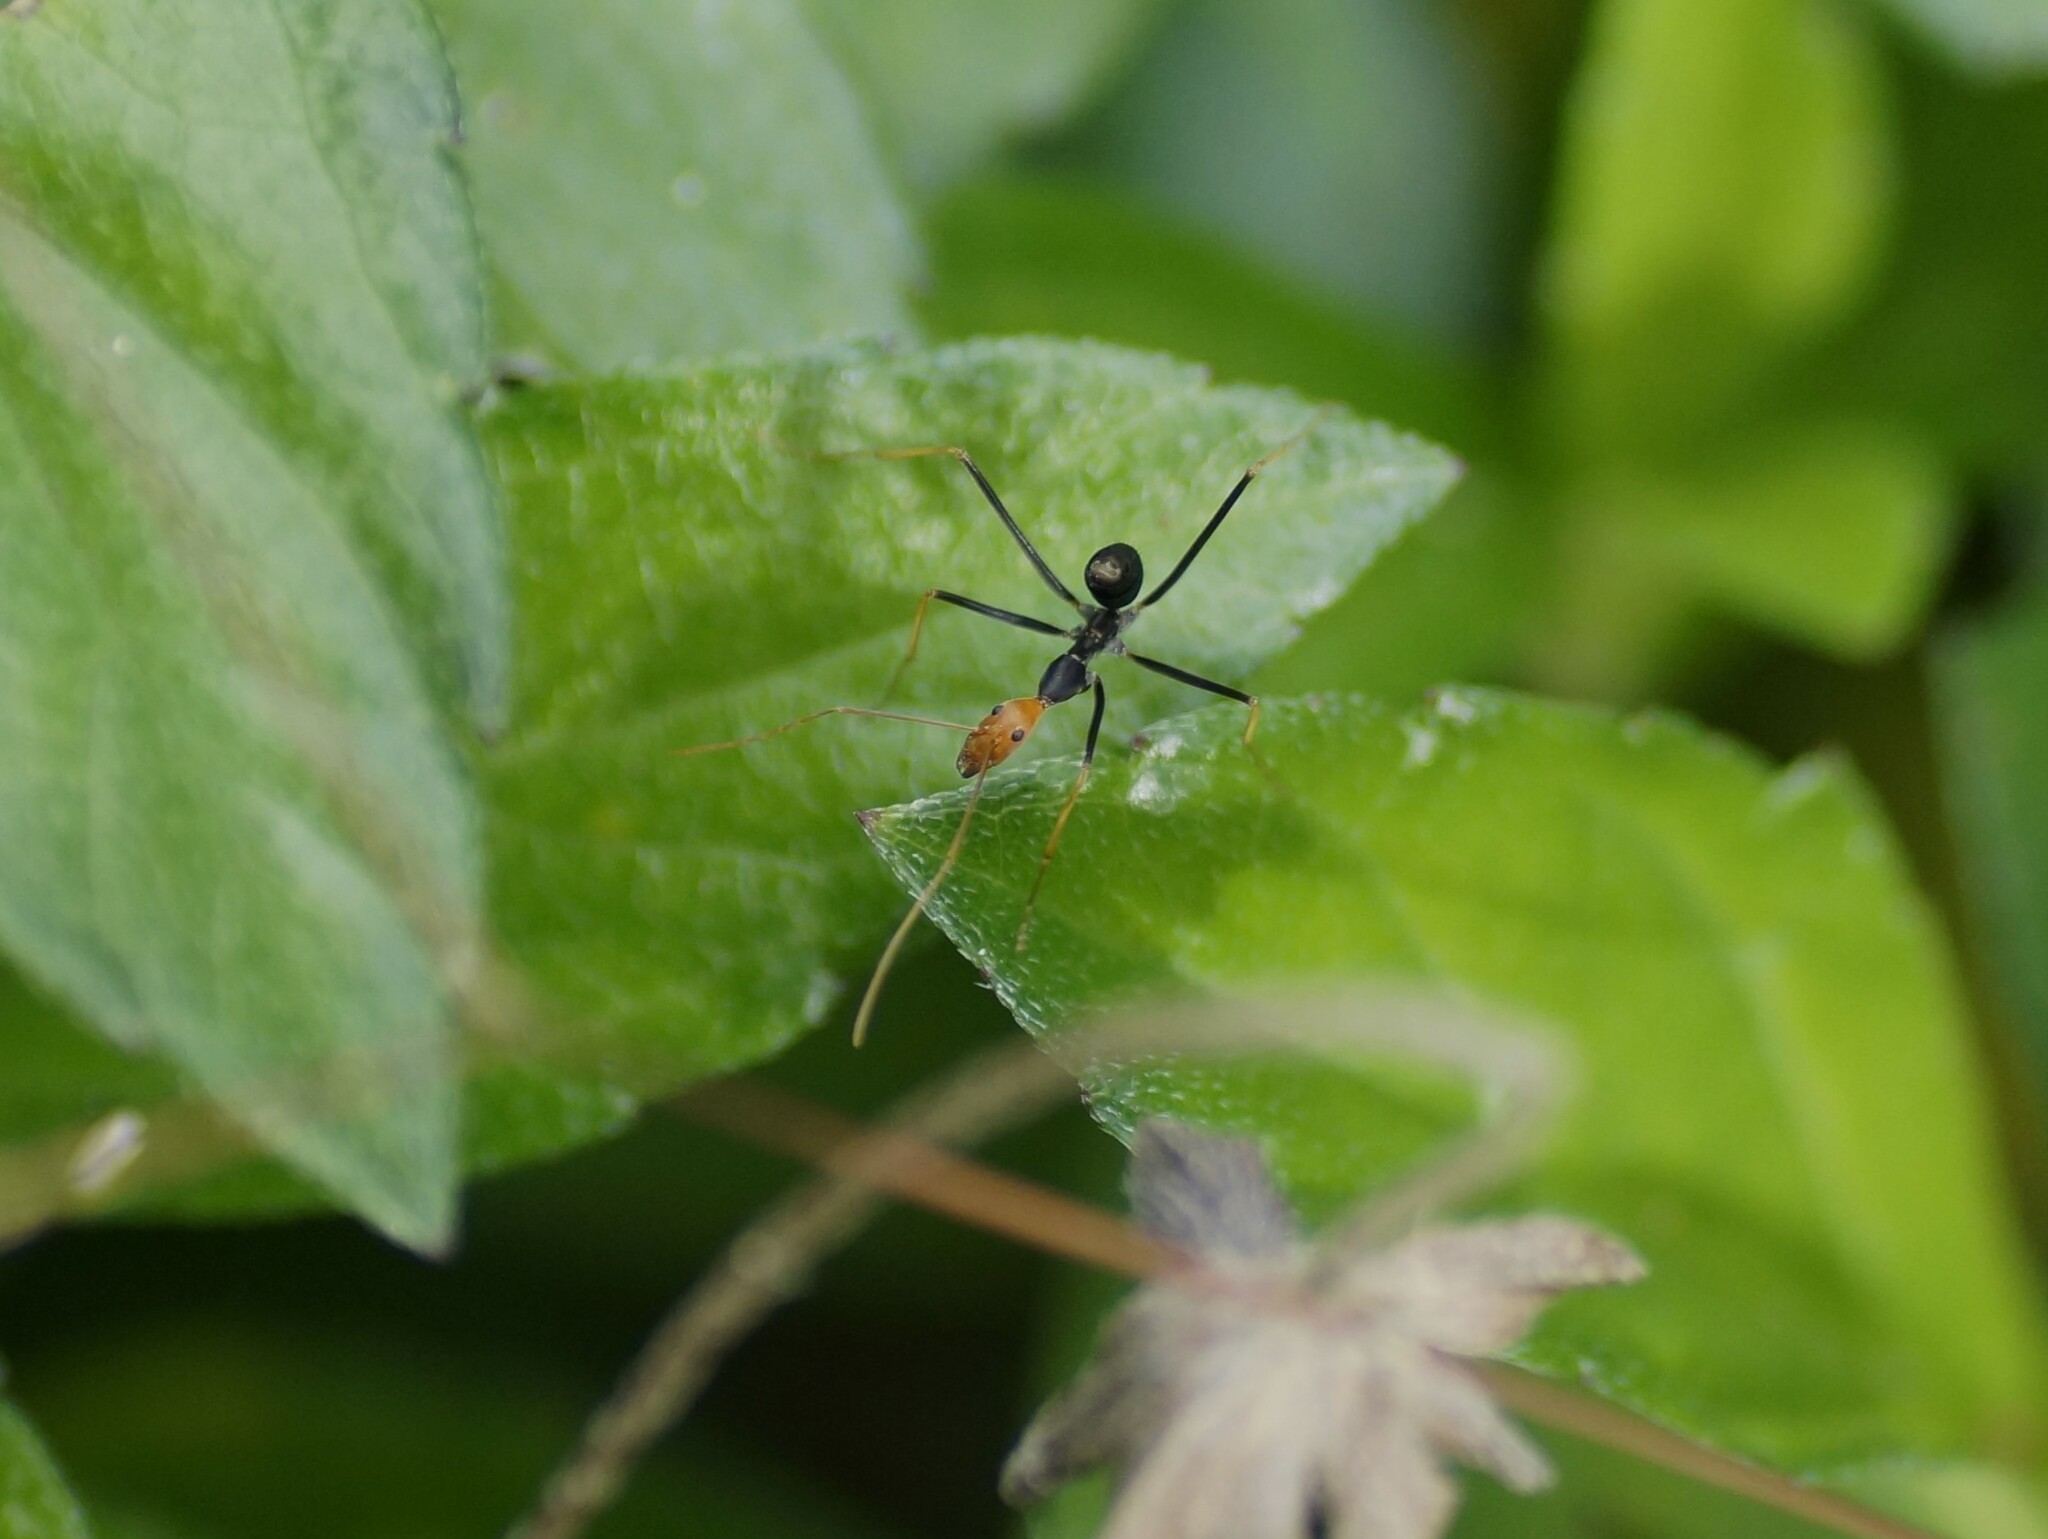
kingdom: Animalia
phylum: Arthropoda
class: Insecta
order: Hymenoptera
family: Formicidae
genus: Leptomyrmex
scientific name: Leptomyrmex ruficeps
